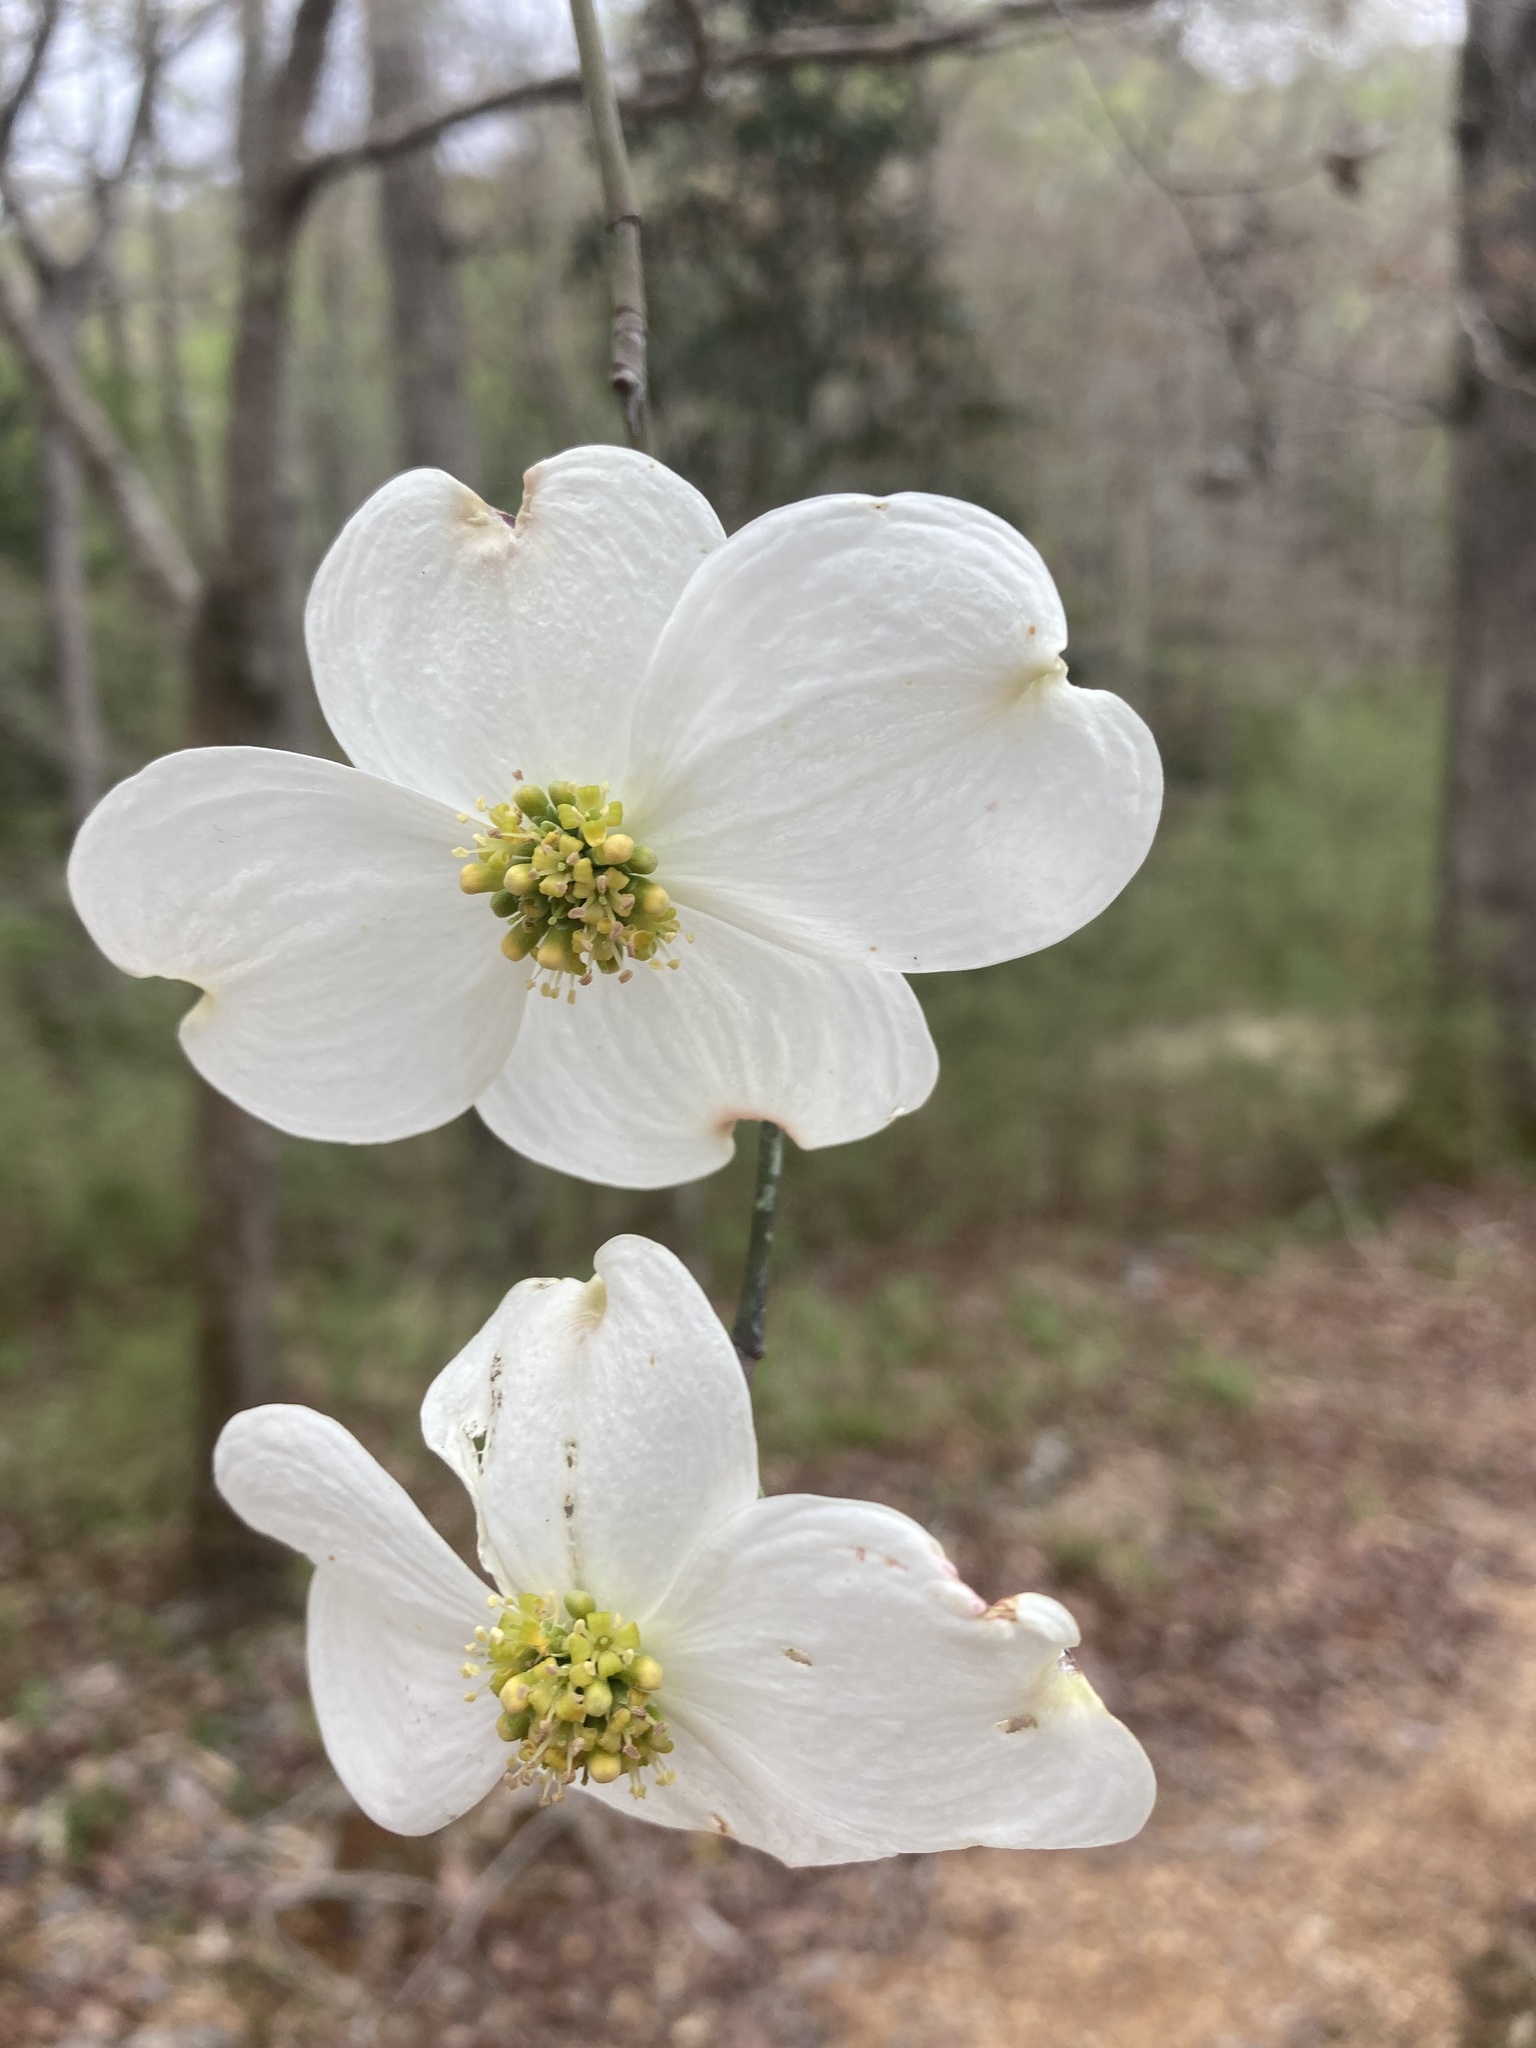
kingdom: Plantae
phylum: Tracheophyta
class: Magnoliopsida
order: Cornales
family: Cornaceae
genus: Cornus
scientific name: Cornus florida
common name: Flowering dogwood
